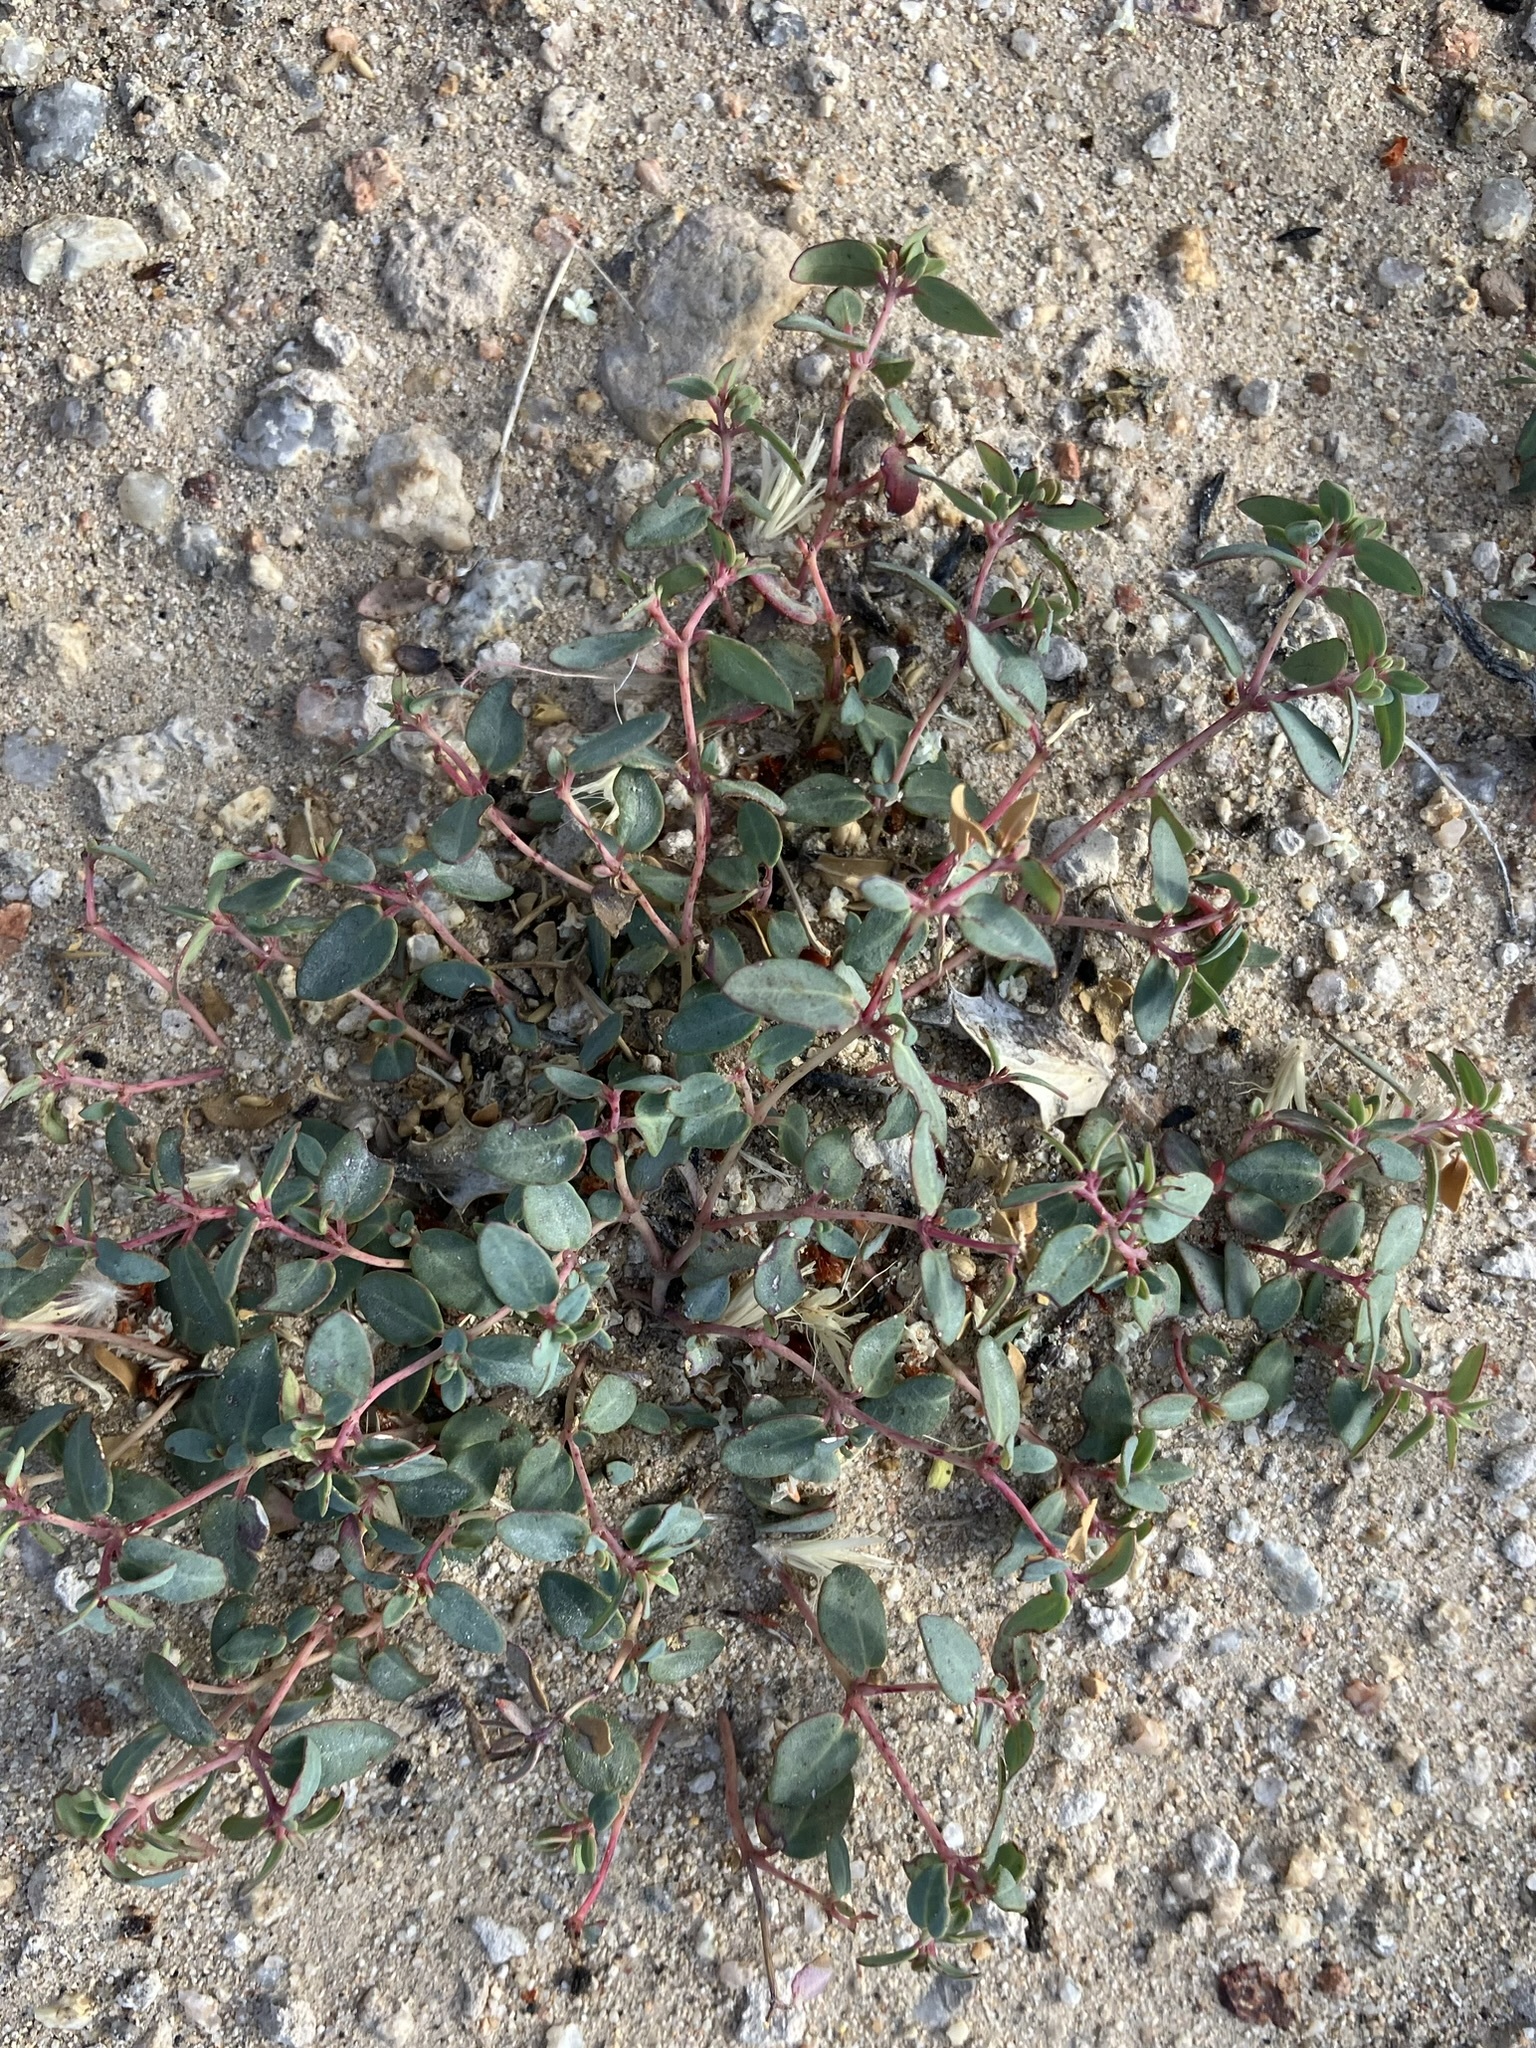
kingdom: Plantae
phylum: Tracheophyta
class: Magnoliopsida
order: Malpighiales
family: Euphorbiaceae
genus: Euphorbia
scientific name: Euphorbia fendleri
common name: Fendler's euphorbia
